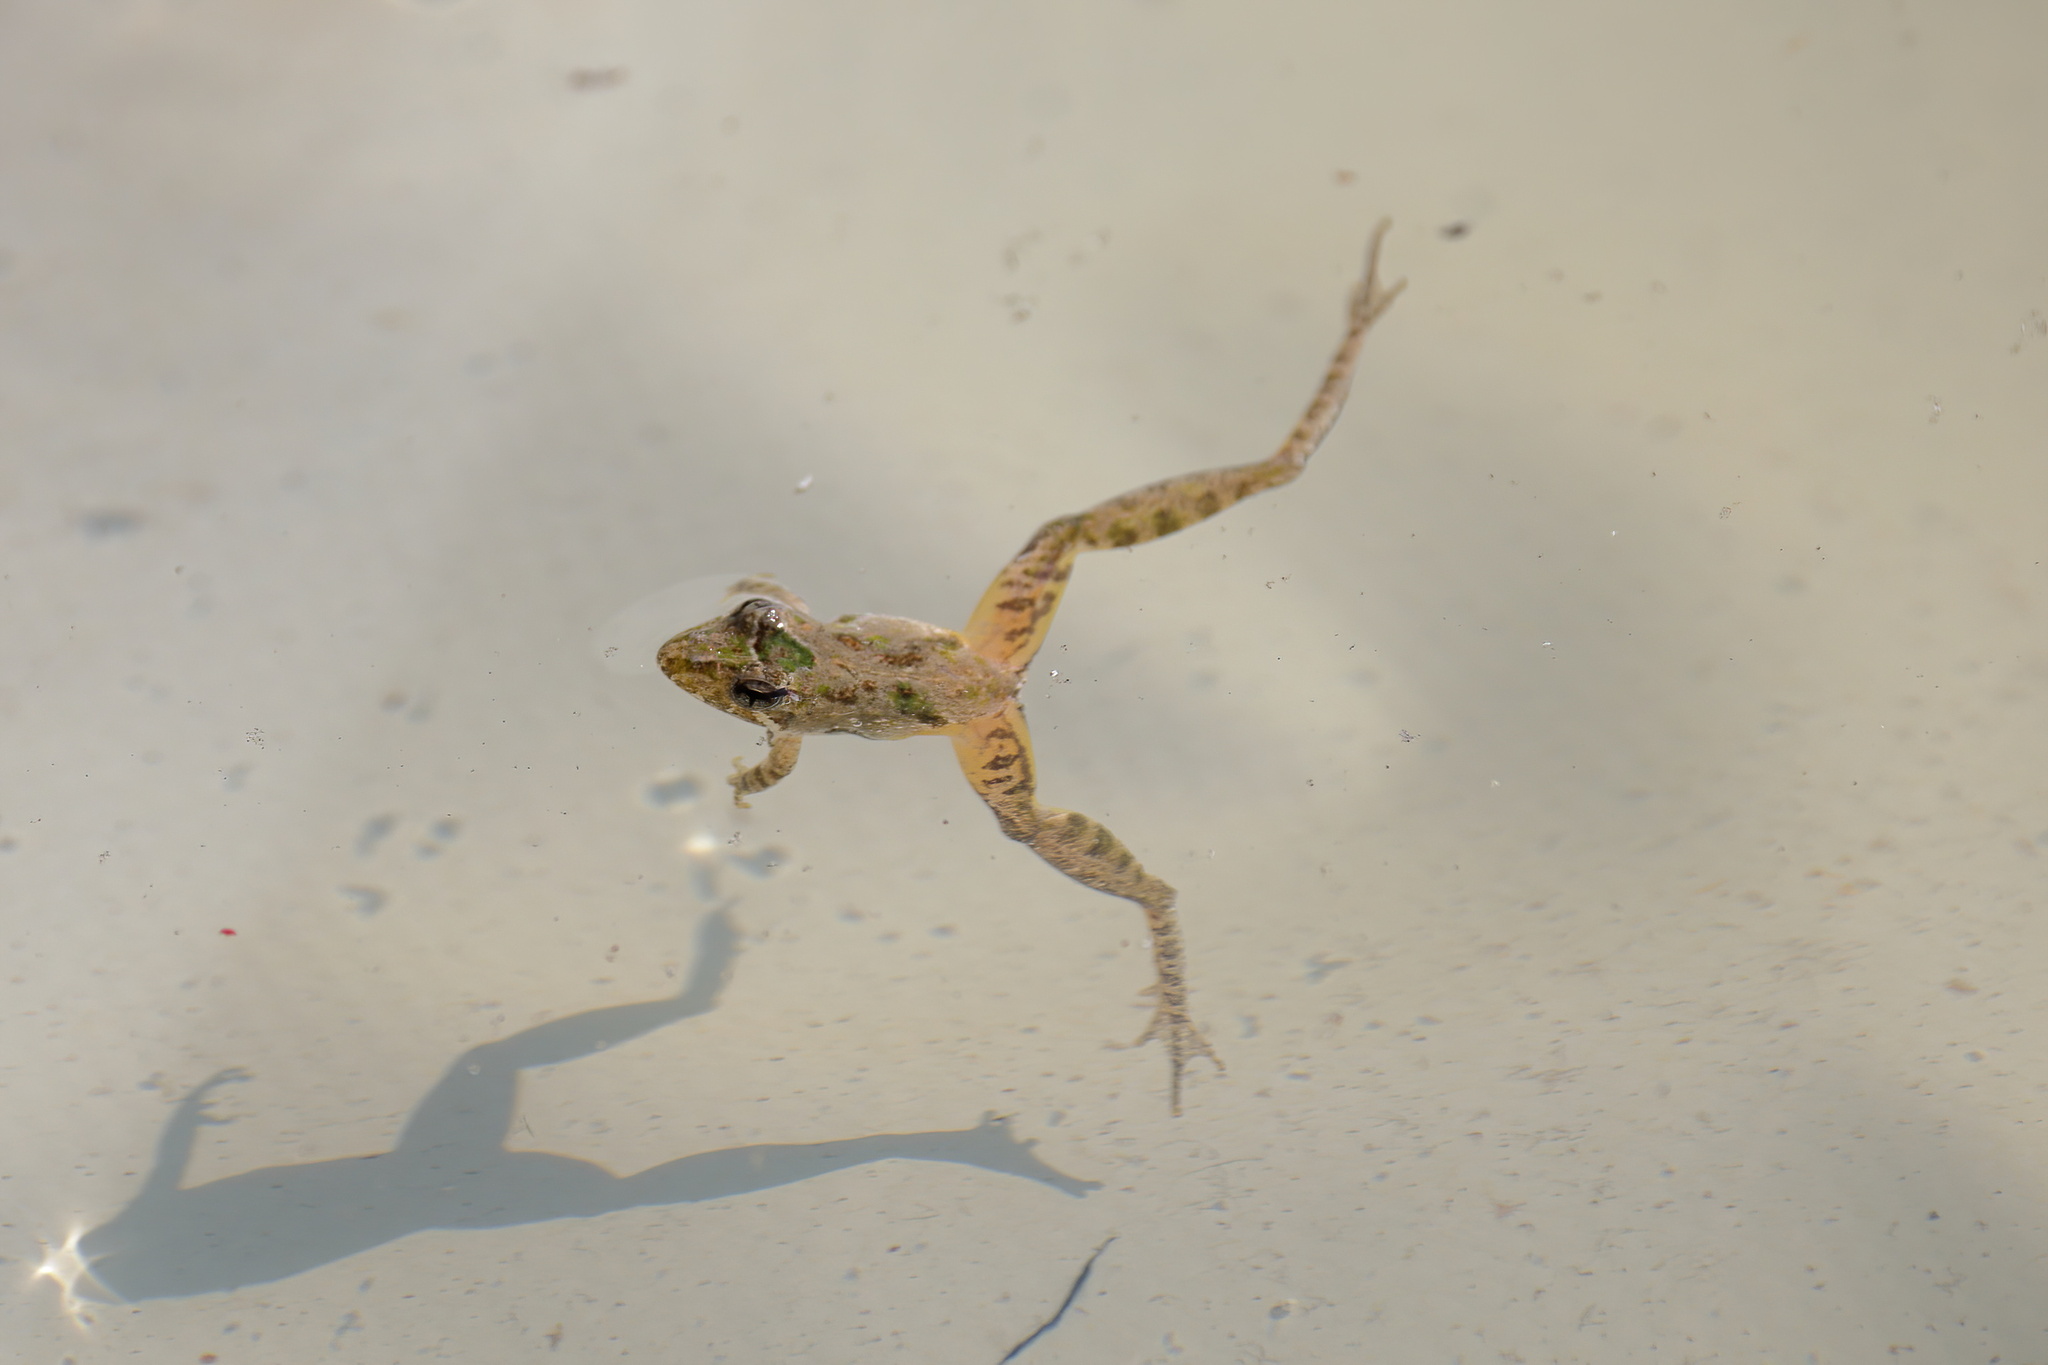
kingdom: Animalia
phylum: Chordata
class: Amphibia
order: Anura
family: Hylidae
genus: Acris
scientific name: Acris gryllus
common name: Southern cricket frog
